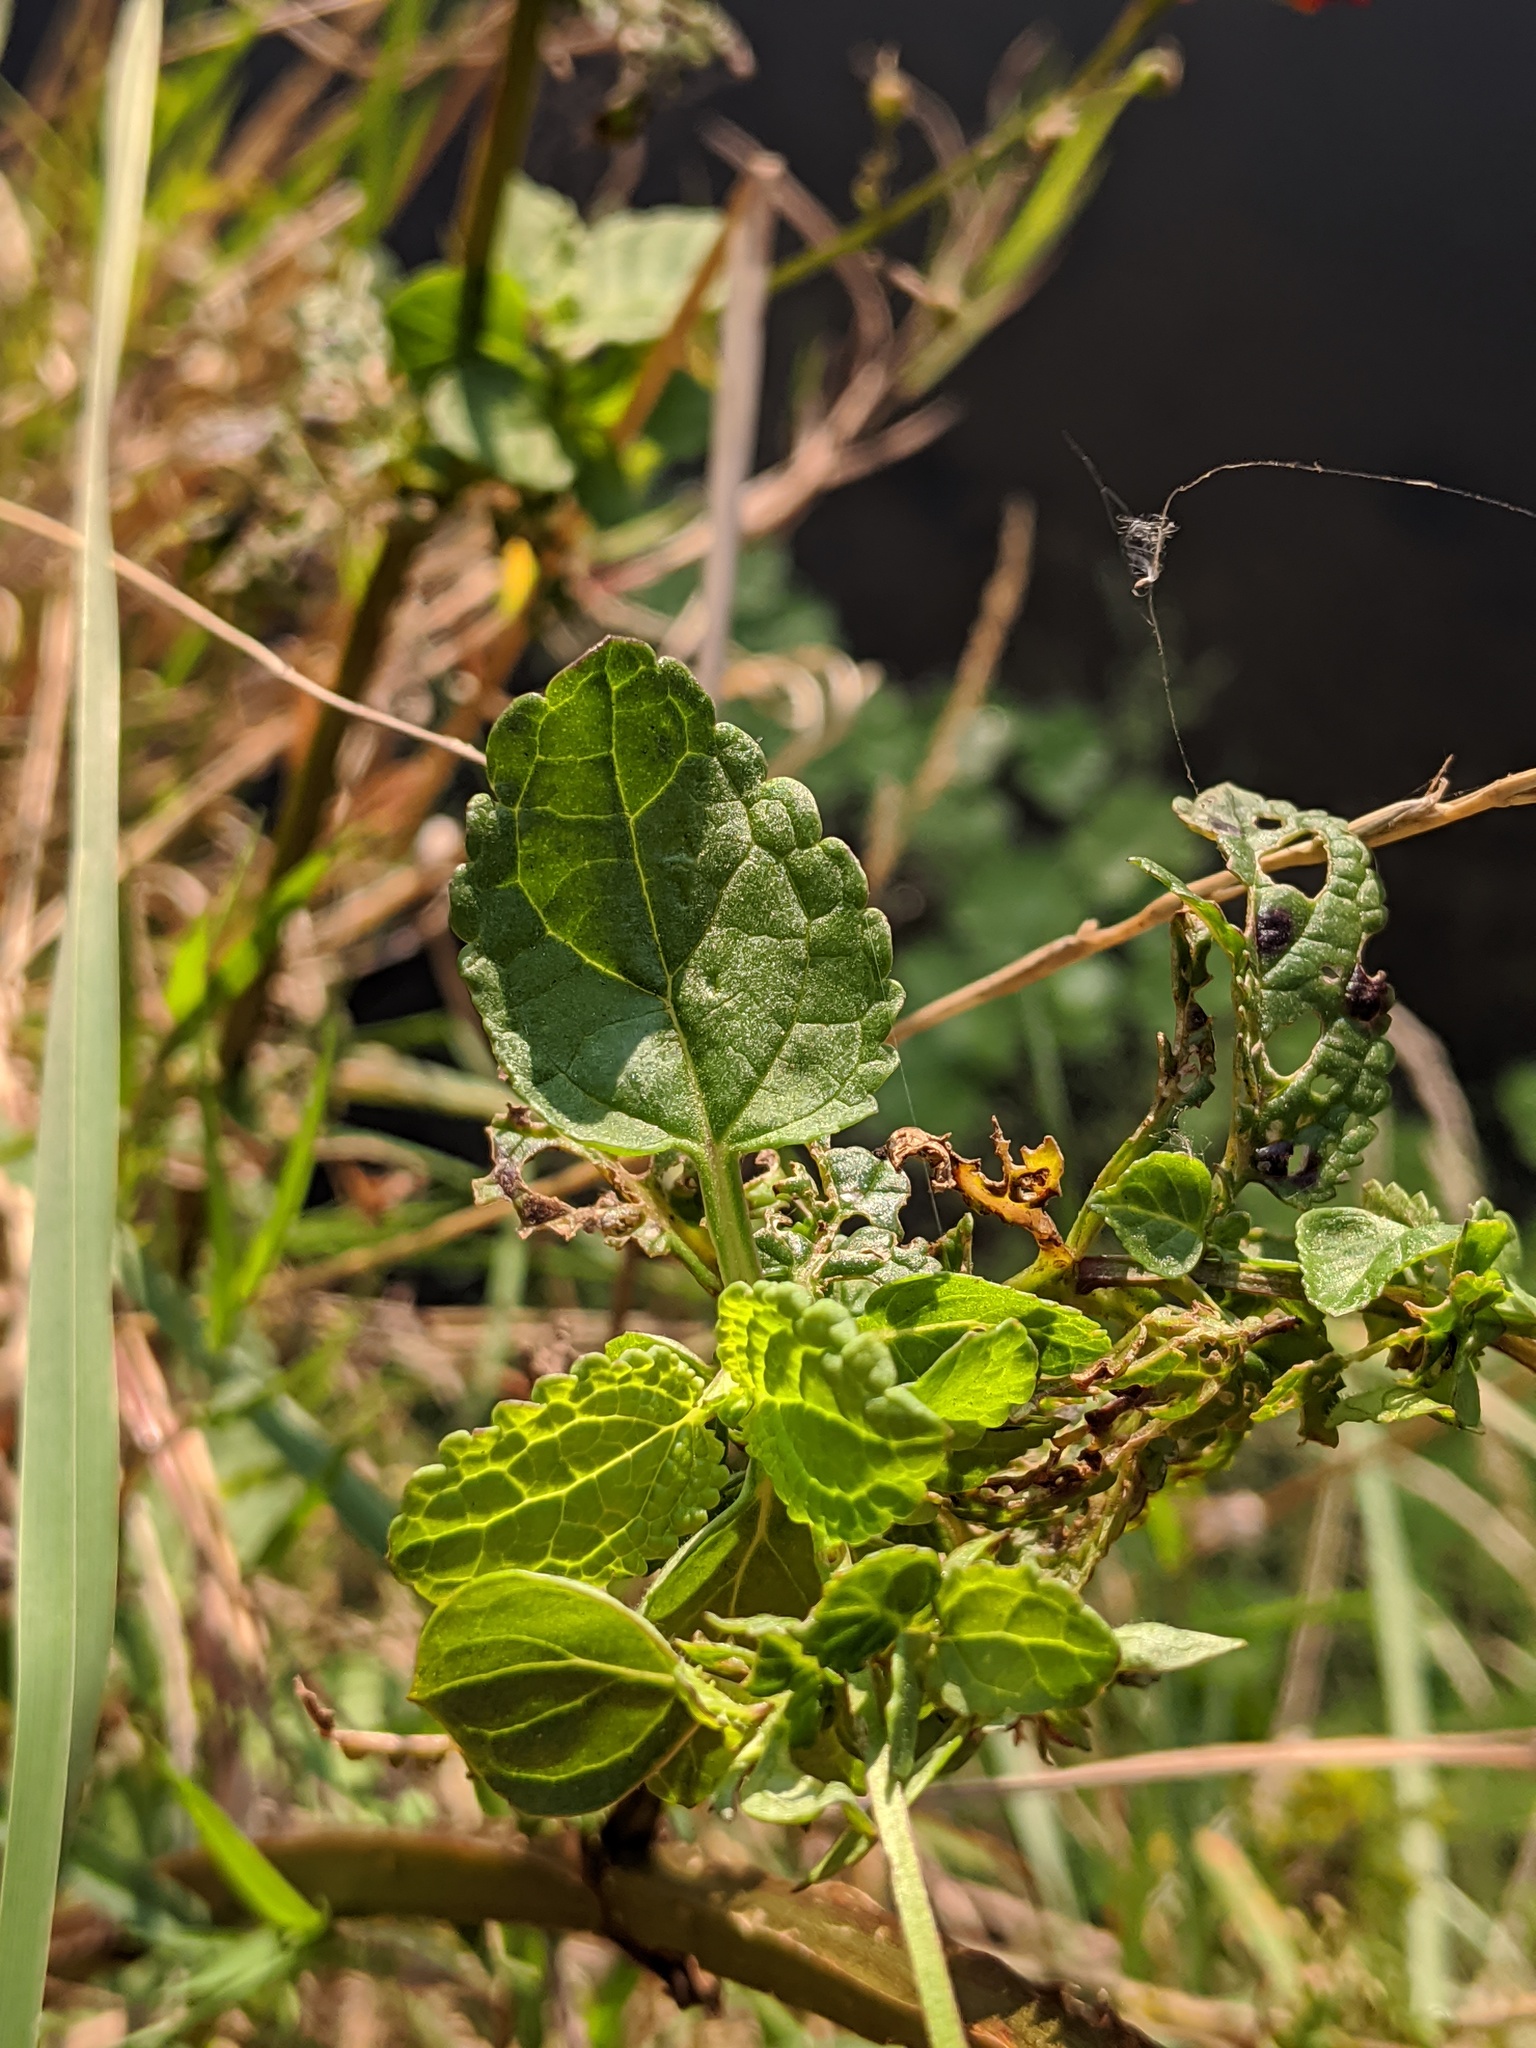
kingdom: Plantae
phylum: Tracheophyta
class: Magnoliopsida
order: Lamiales
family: Scrophulariaceae
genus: Scrophularia
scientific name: Scrophularia auriculata
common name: Water betony
